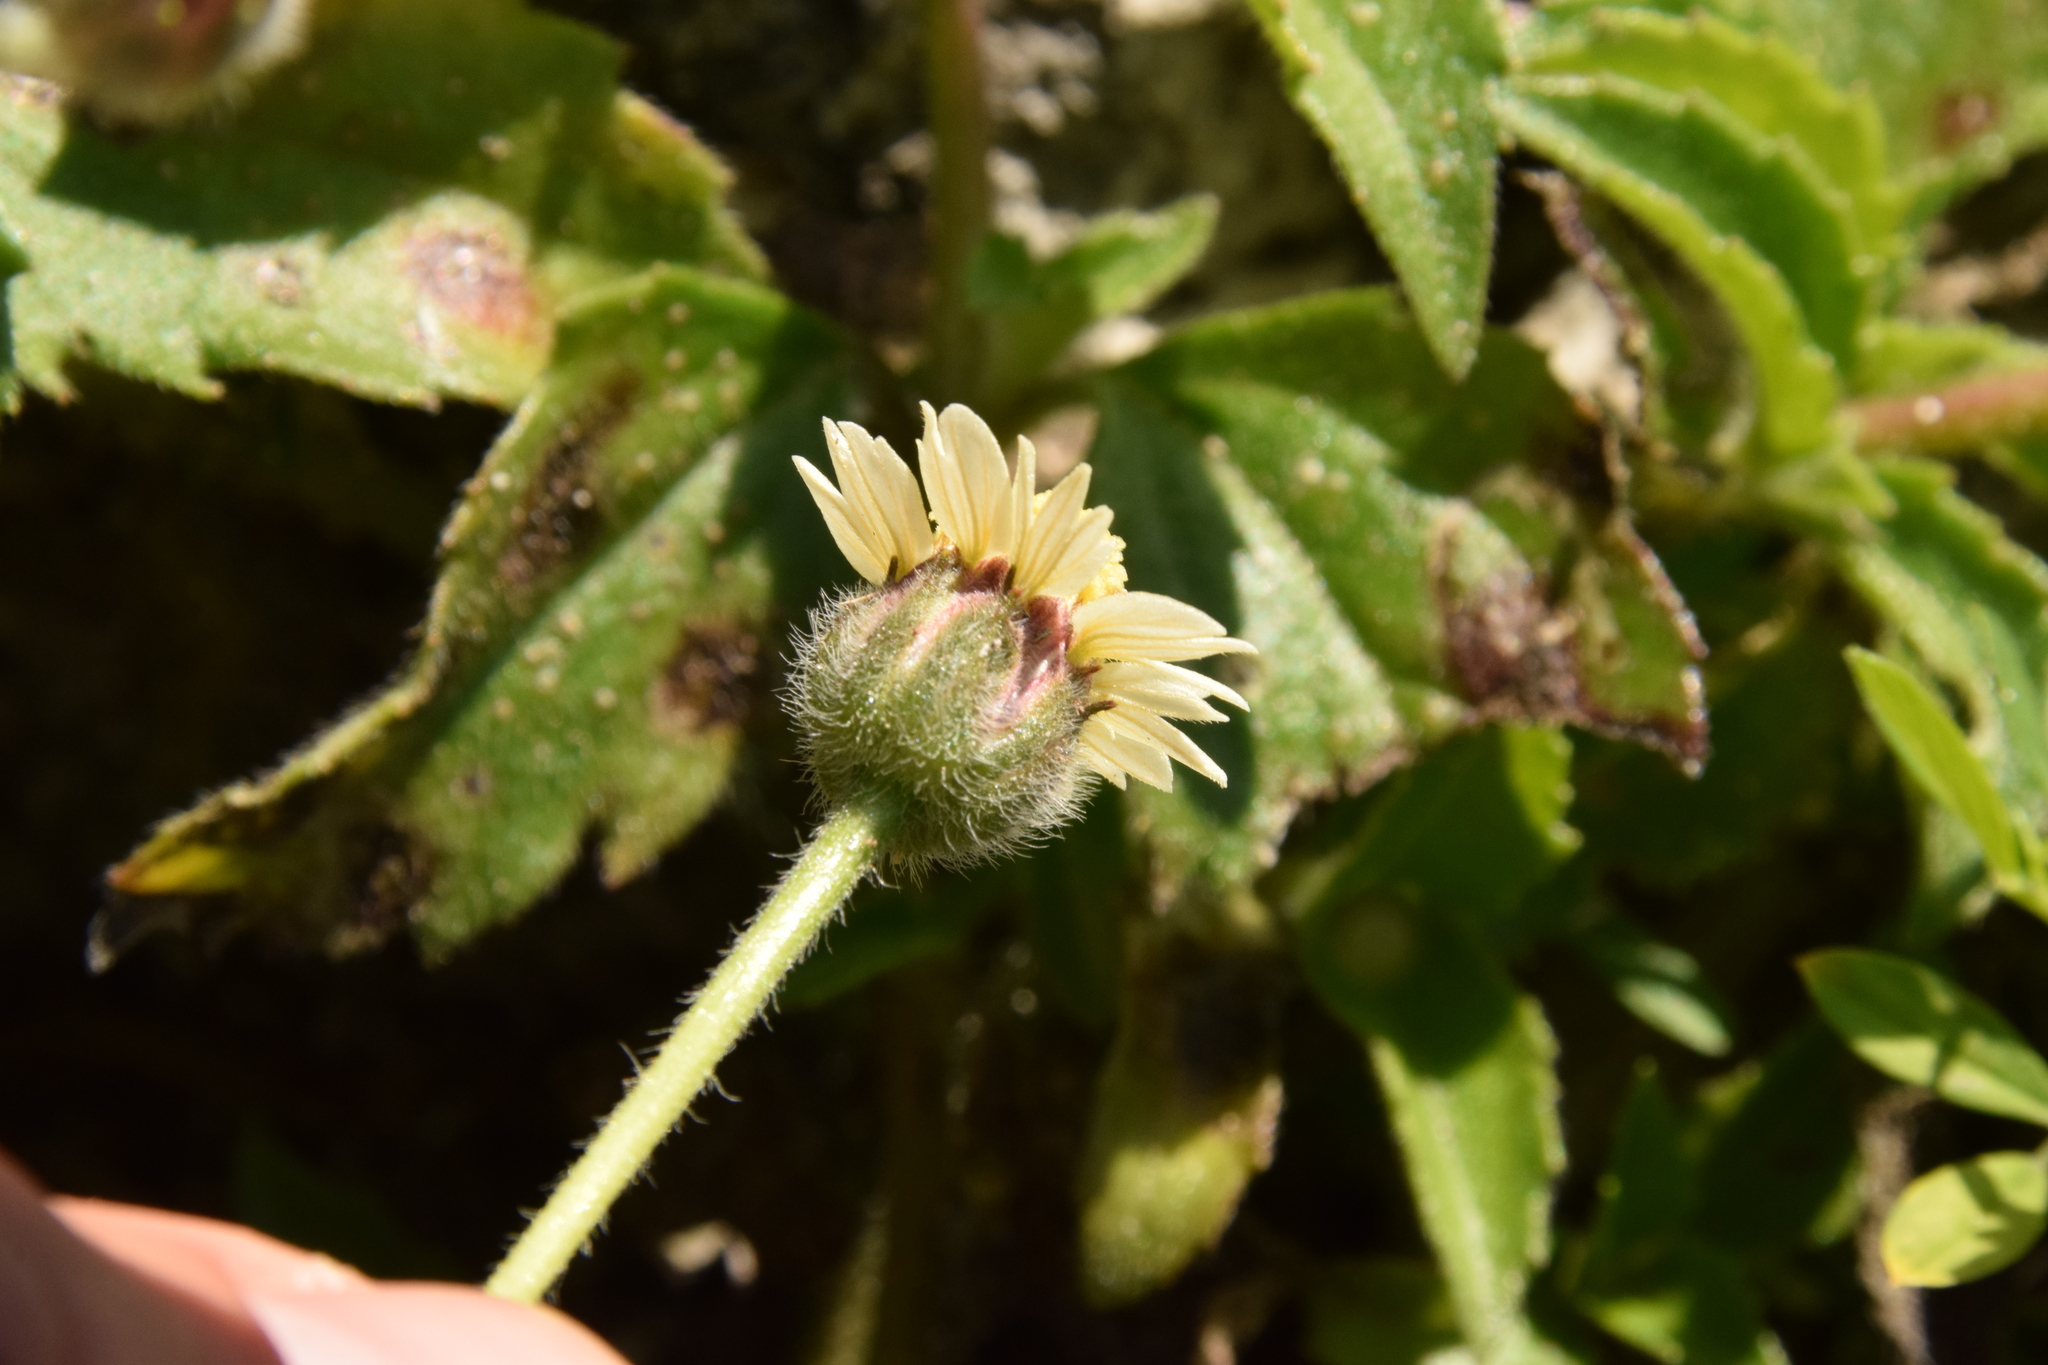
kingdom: Plantae
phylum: Tracheophyta
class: Magnoliopsida
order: Asterales
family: Asteraceae
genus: Tridax
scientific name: Tridax procumbens
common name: Coatbuttons
